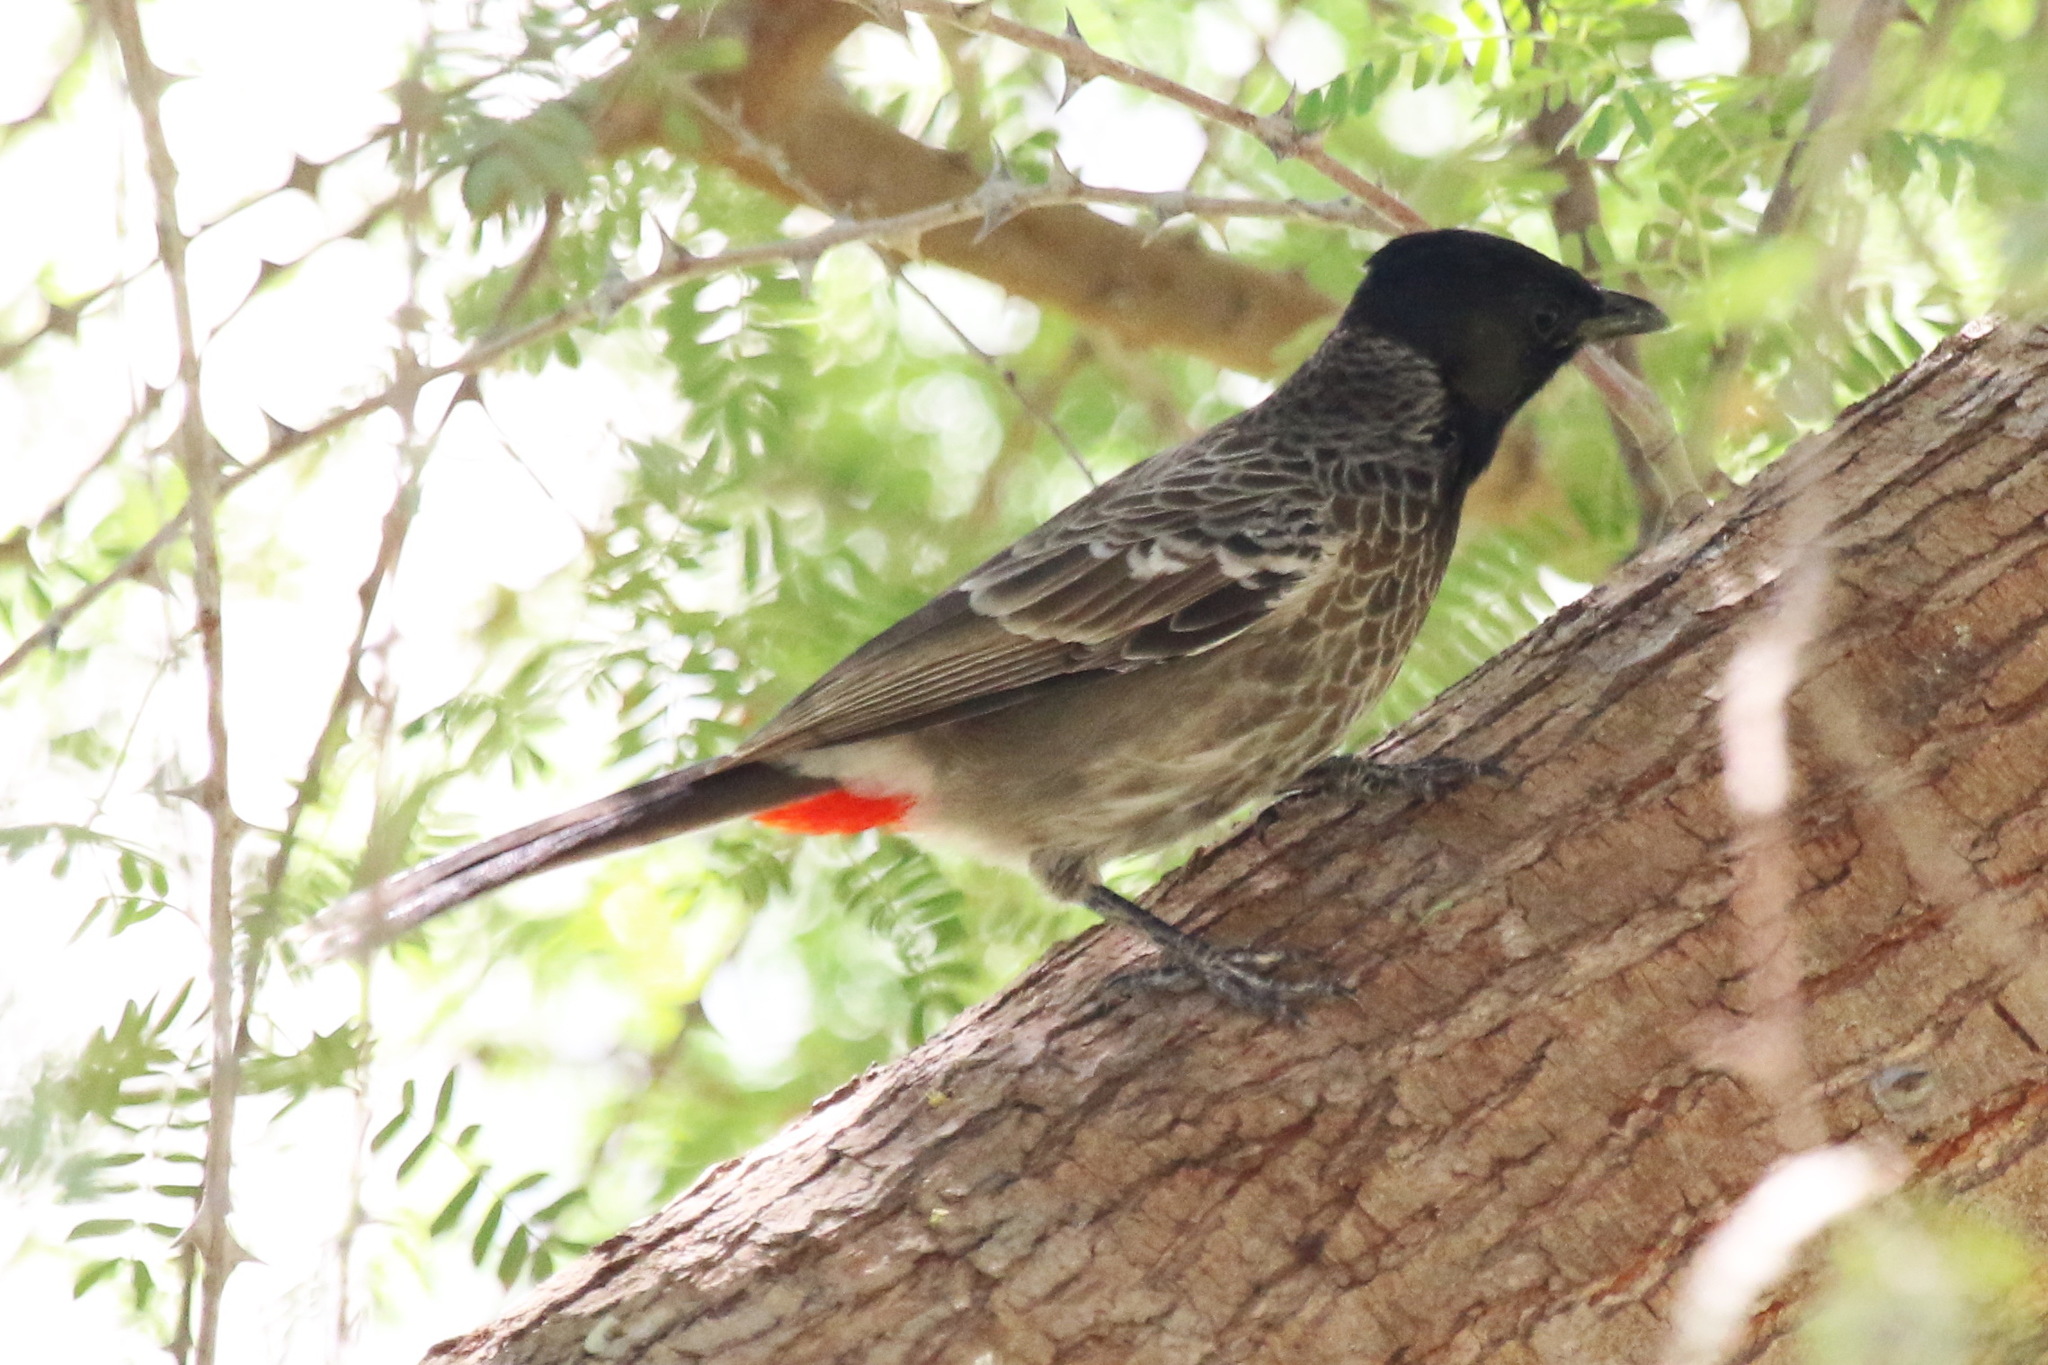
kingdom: Animalia
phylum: Chordata
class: Aves
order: Passeriformes
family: Pycnonotidae
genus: Pycnonotus
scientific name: Pycnonotus cafer
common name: Red-vented bulbul
